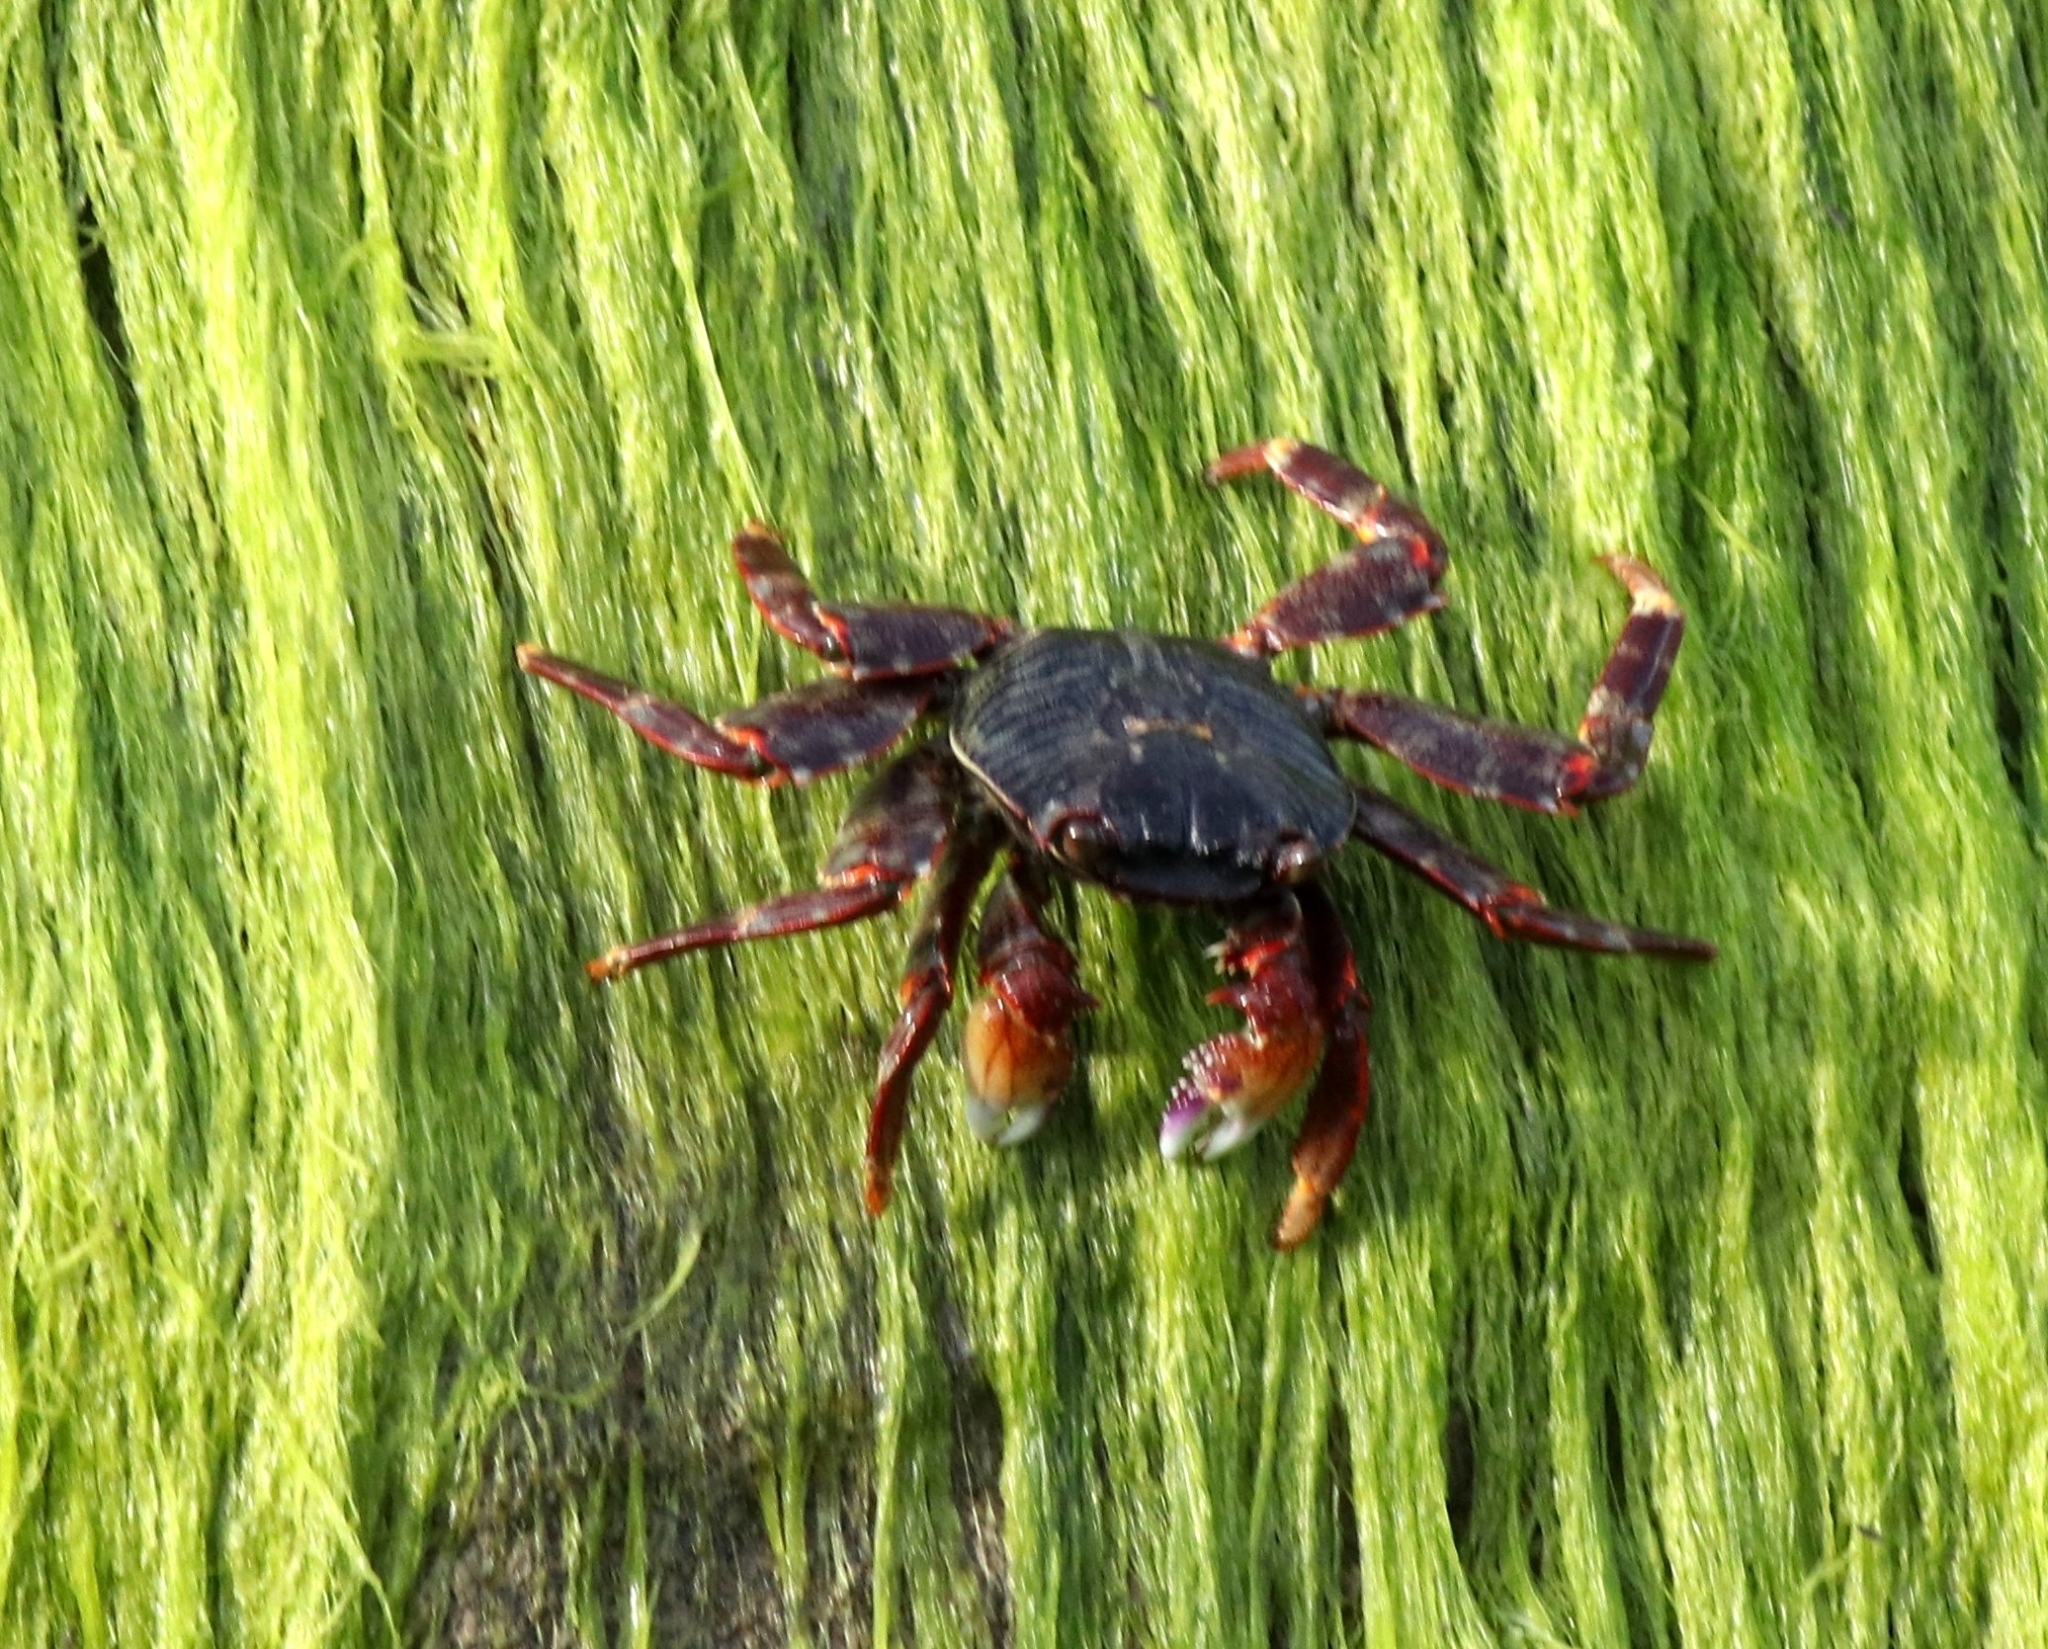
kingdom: Animalia
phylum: Arthropoda
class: Malacostraca
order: Decapoda
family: Grapsidae
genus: Grapsus
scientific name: Grapsus albolineatus
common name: Mottled lightfoot crab
